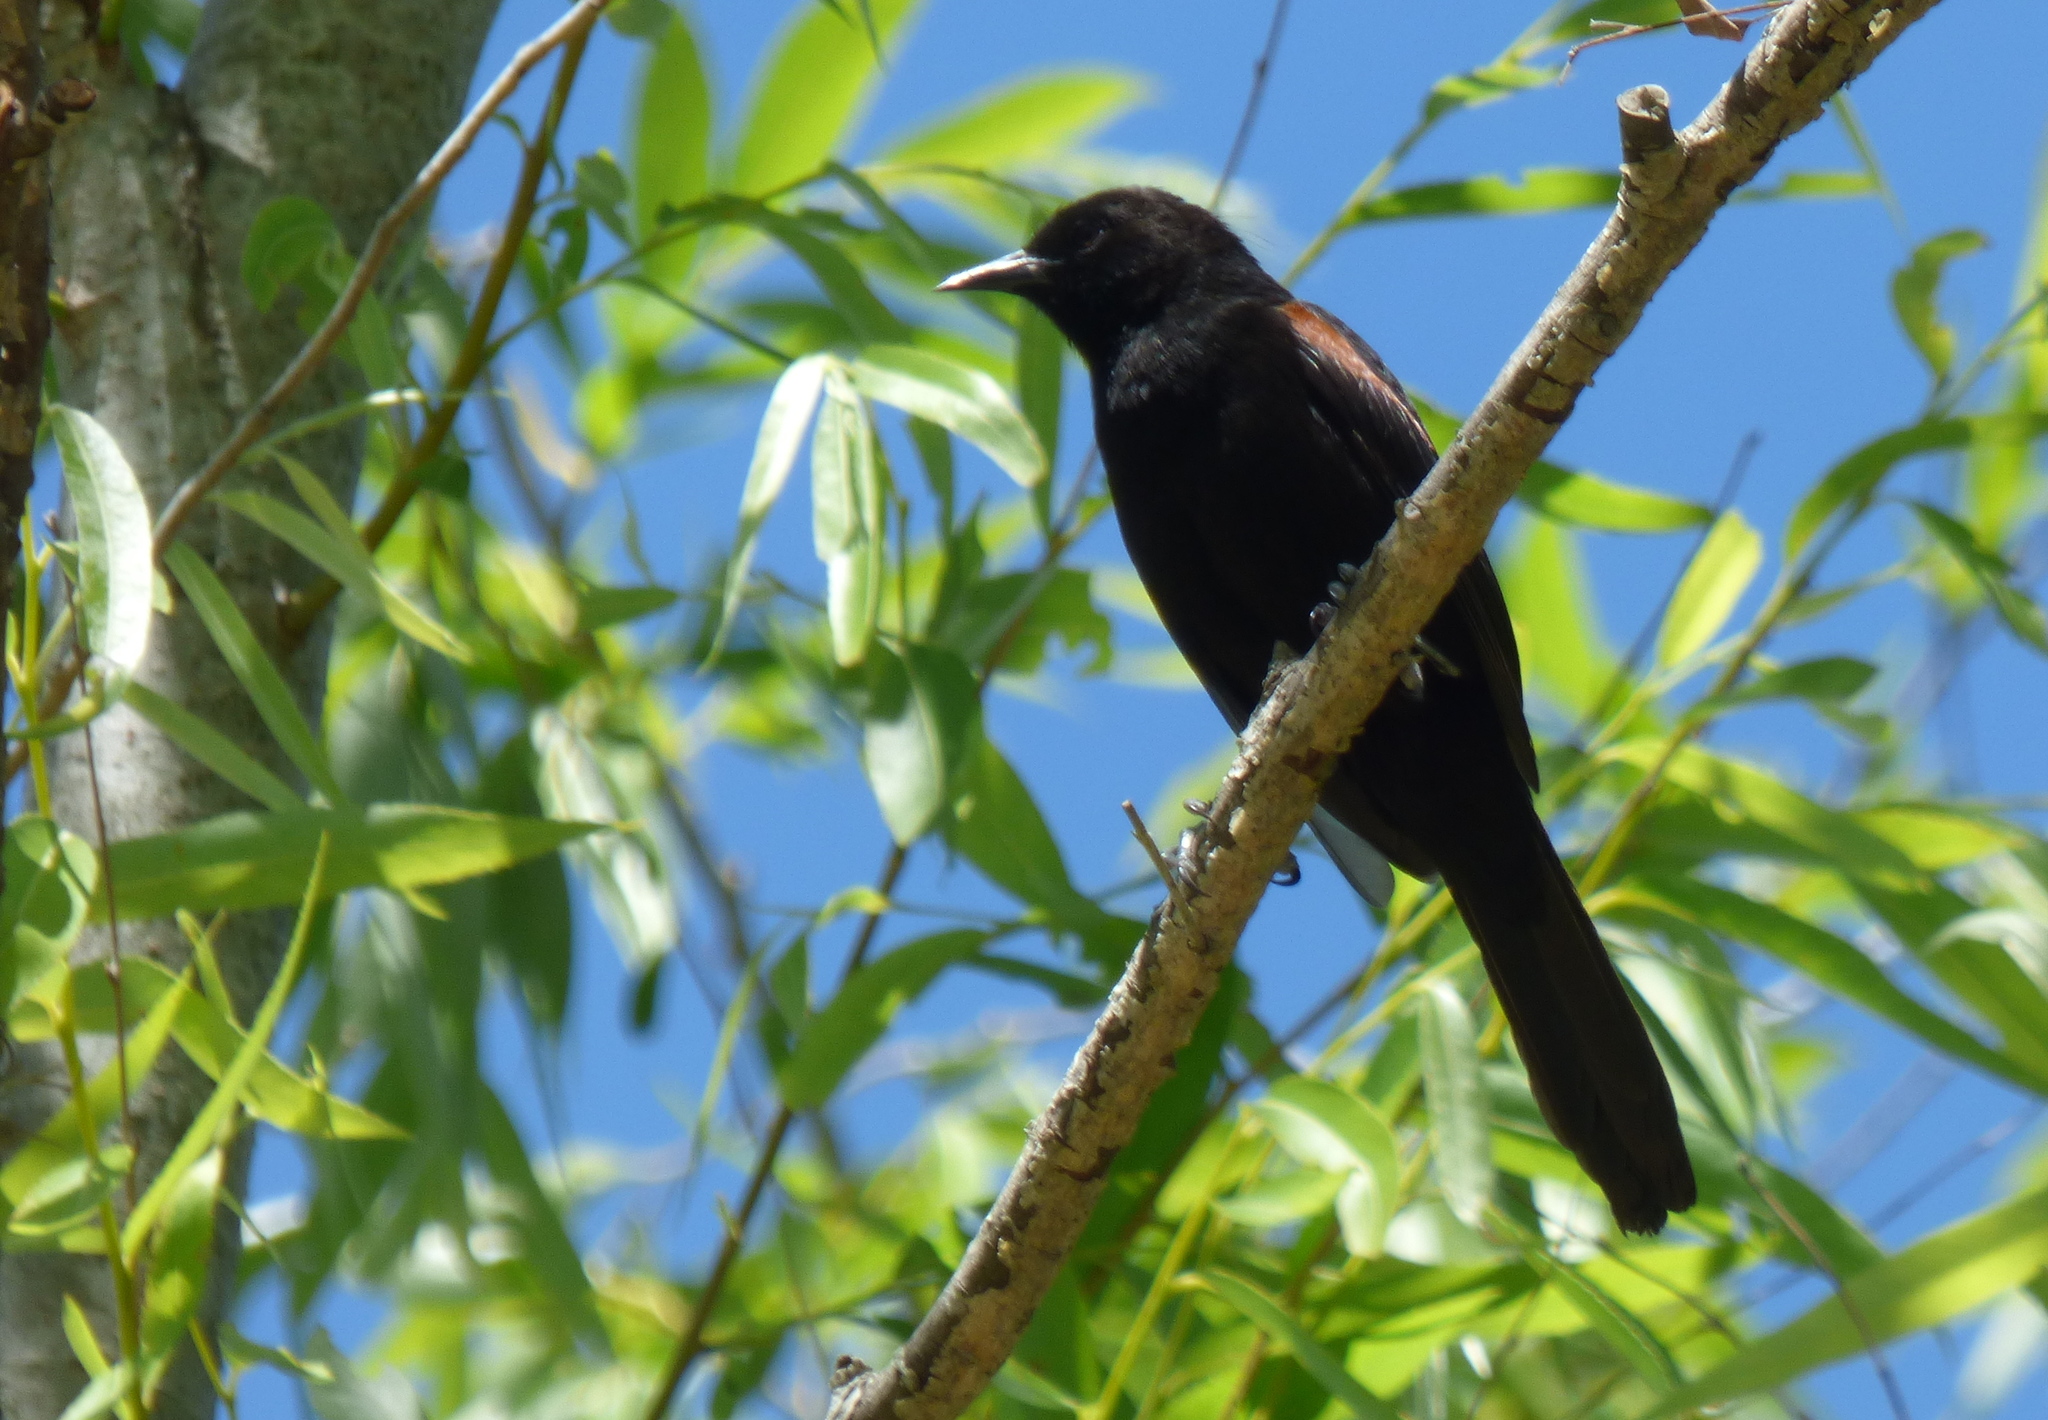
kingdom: Animalia
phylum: Chordata
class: Aves
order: Passeriformes
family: Icteridae
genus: Icterus
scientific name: Icterus cayanensis
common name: Epaulet oriole
